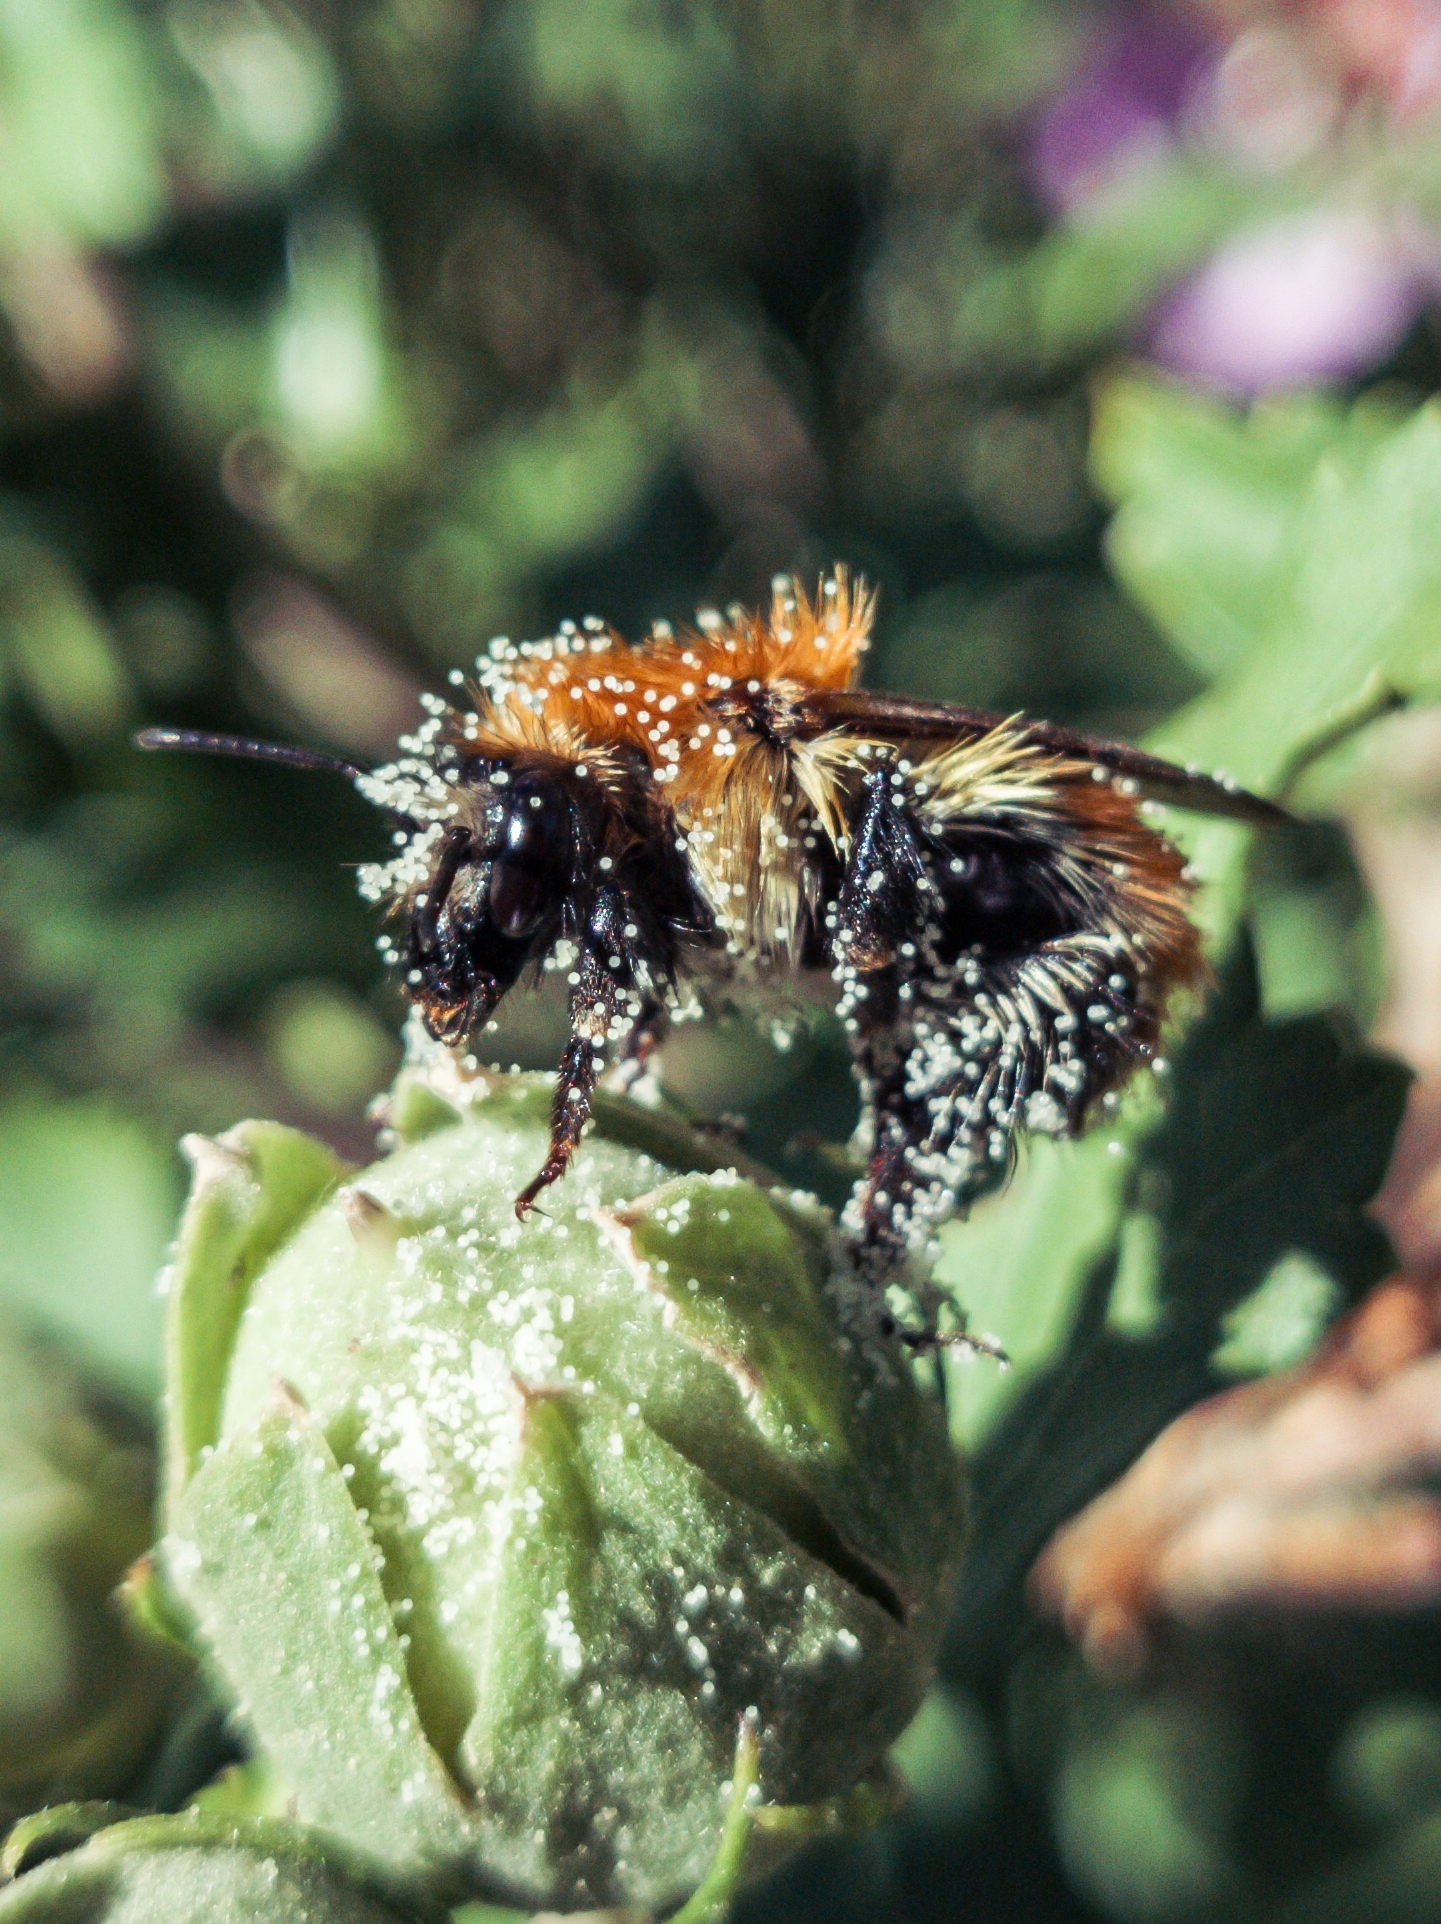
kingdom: Animalia
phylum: Arthropoda
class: Insecta
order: Hymenoptera
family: Apidae
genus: Bombus
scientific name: Bombus pascuorum
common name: Common carder bee
